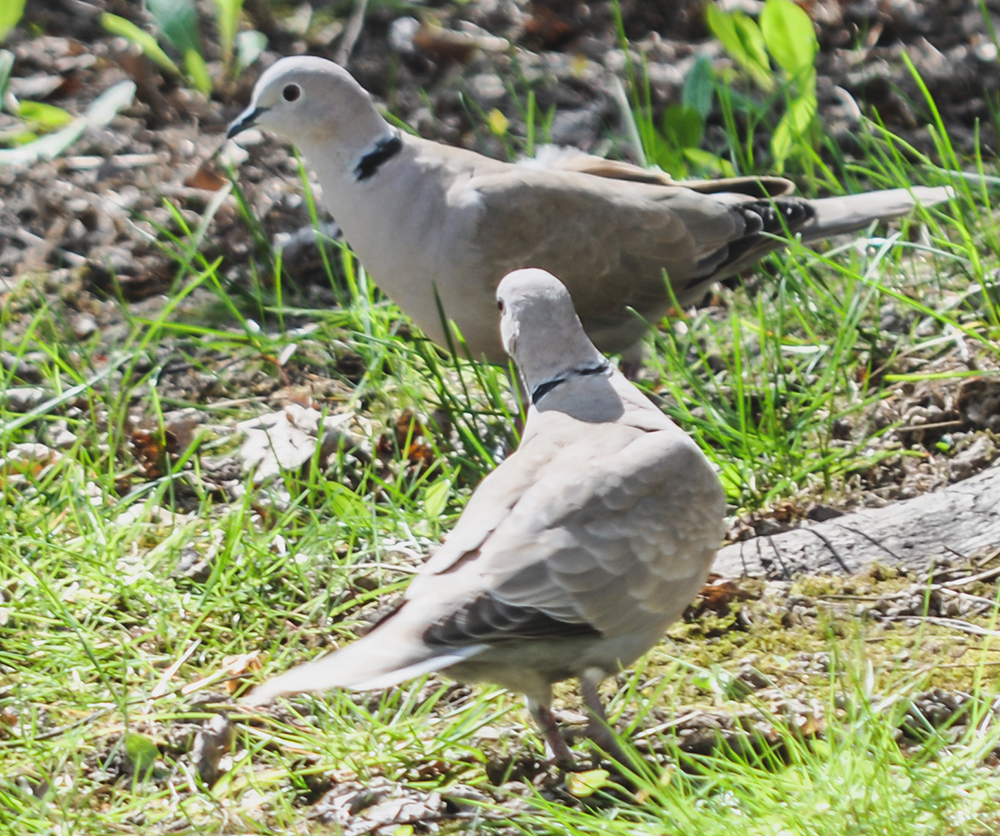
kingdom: Animalia
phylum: Chordata
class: Aves
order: Columbiformes
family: Columbidae
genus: Streptopelia
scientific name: Streptopelia decaocto
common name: Eurasian collared dove
